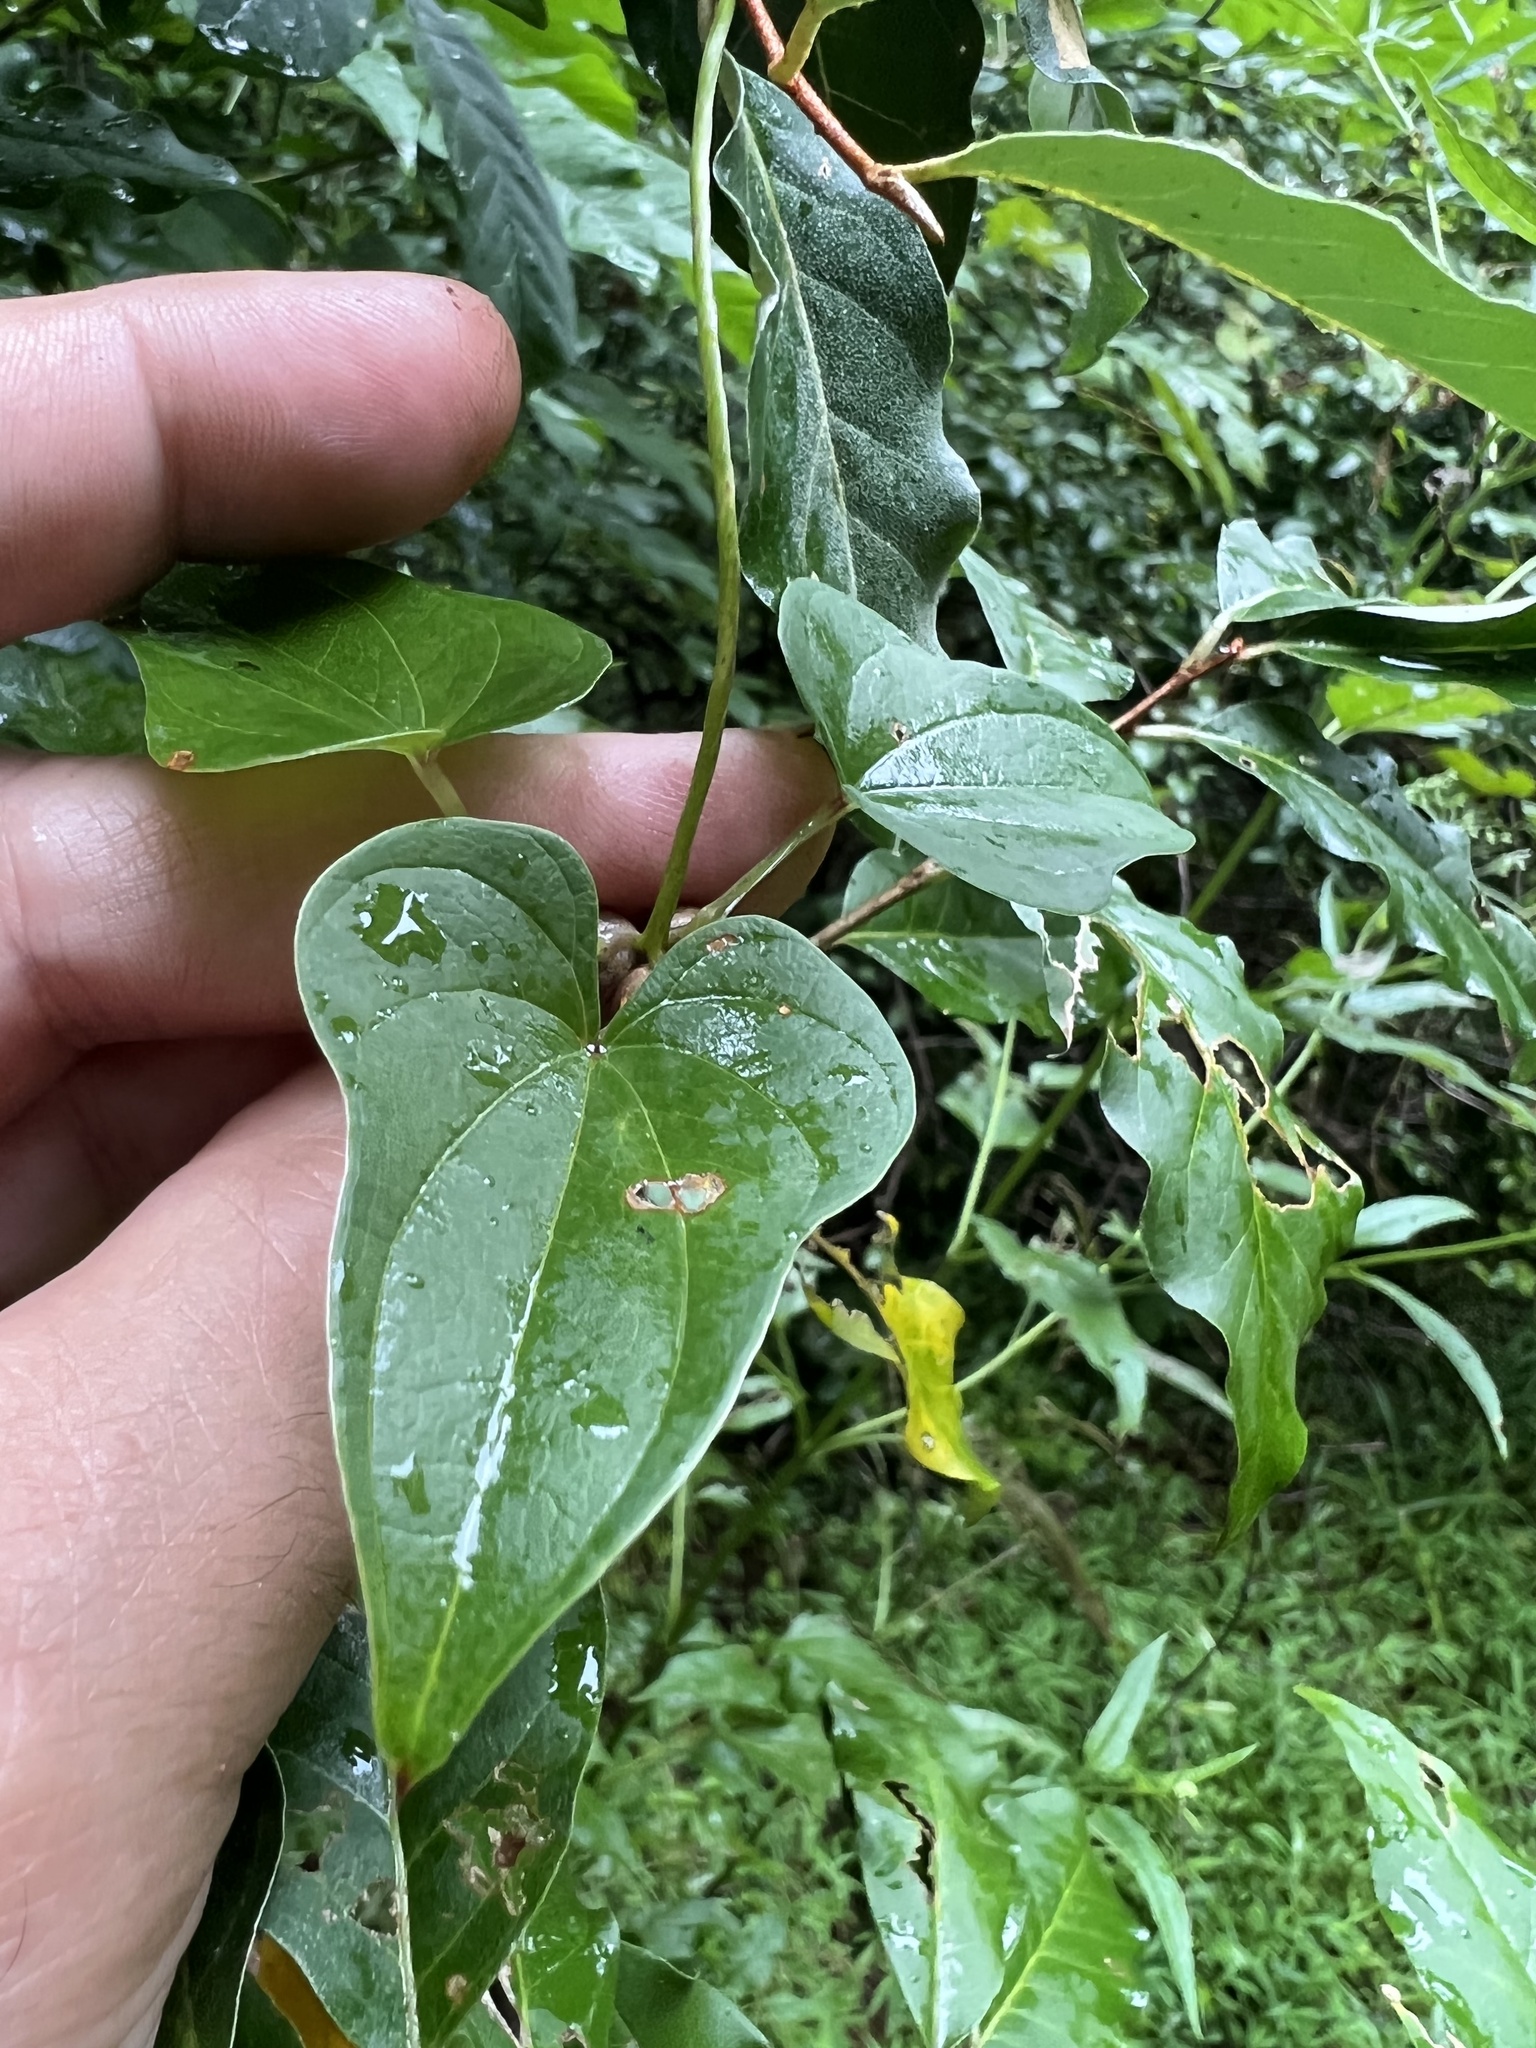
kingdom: Plantae
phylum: Tracheophyta
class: Liliopsida
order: Dioscoreales
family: Dioscoreaceae
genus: Dioscorea
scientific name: Dioscorea polystachya
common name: Chinese yam
